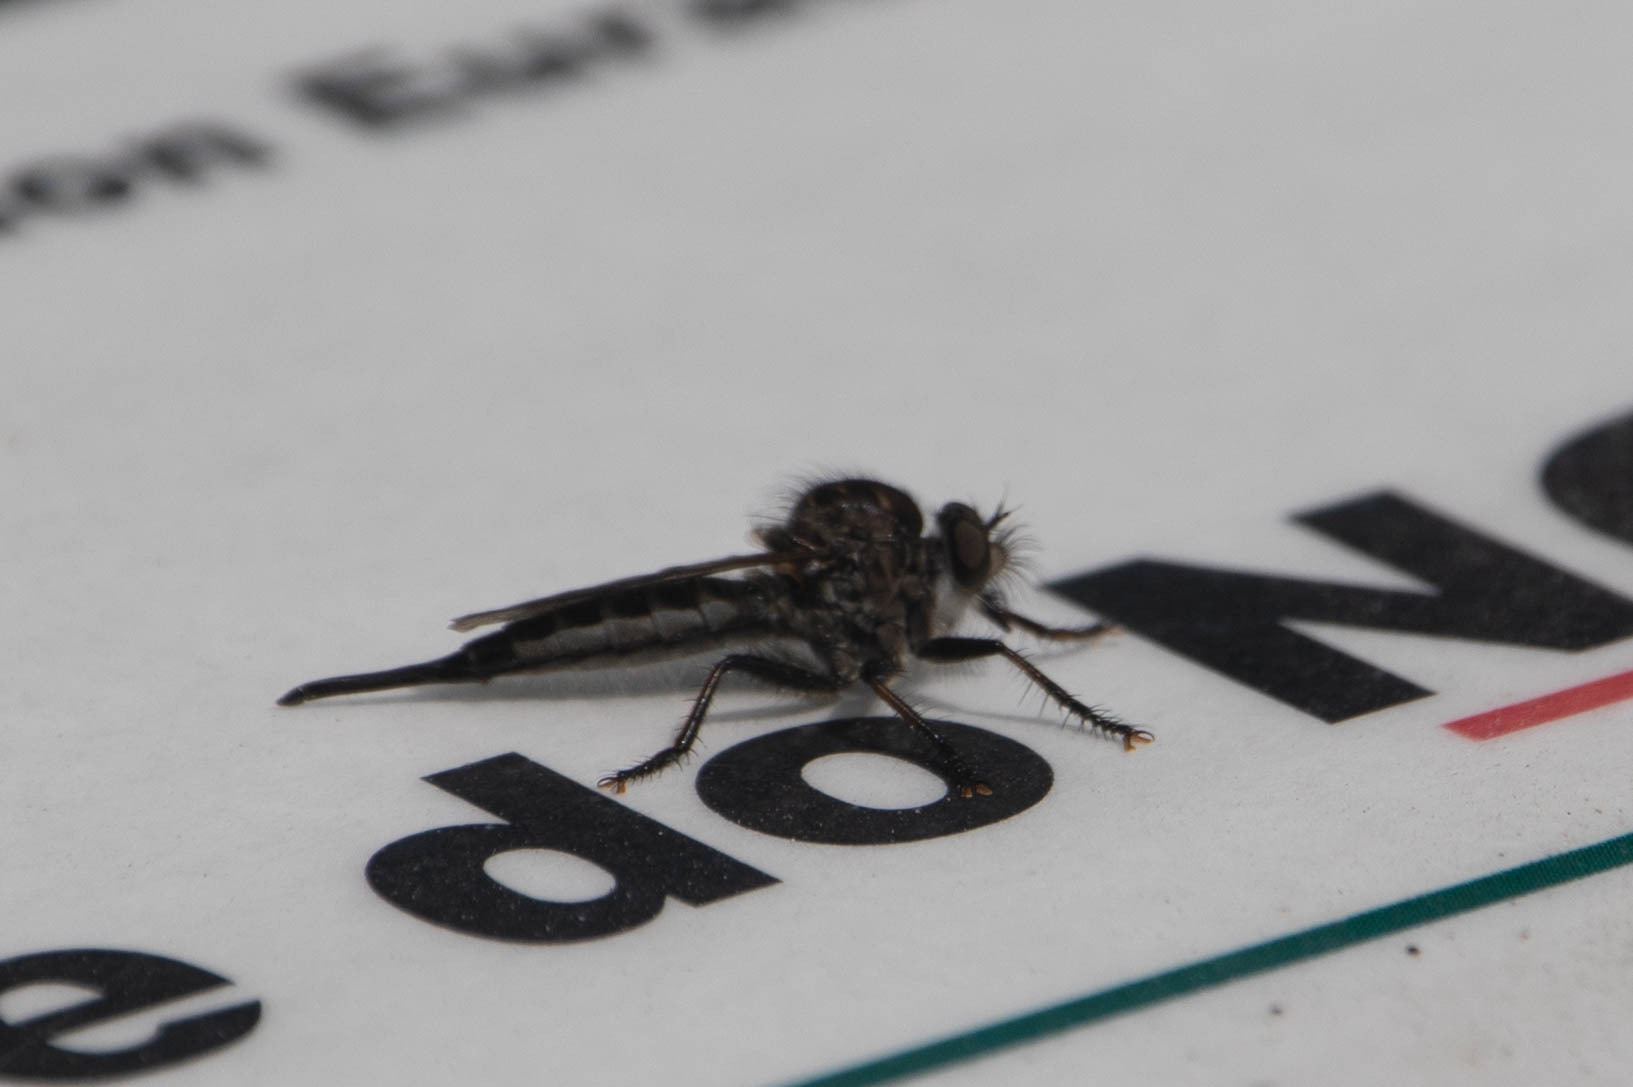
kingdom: Animalia
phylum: Arthropoda
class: Insecta
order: Diptera
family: Asilidae
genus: Efferia
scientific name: Efferia aestuans
